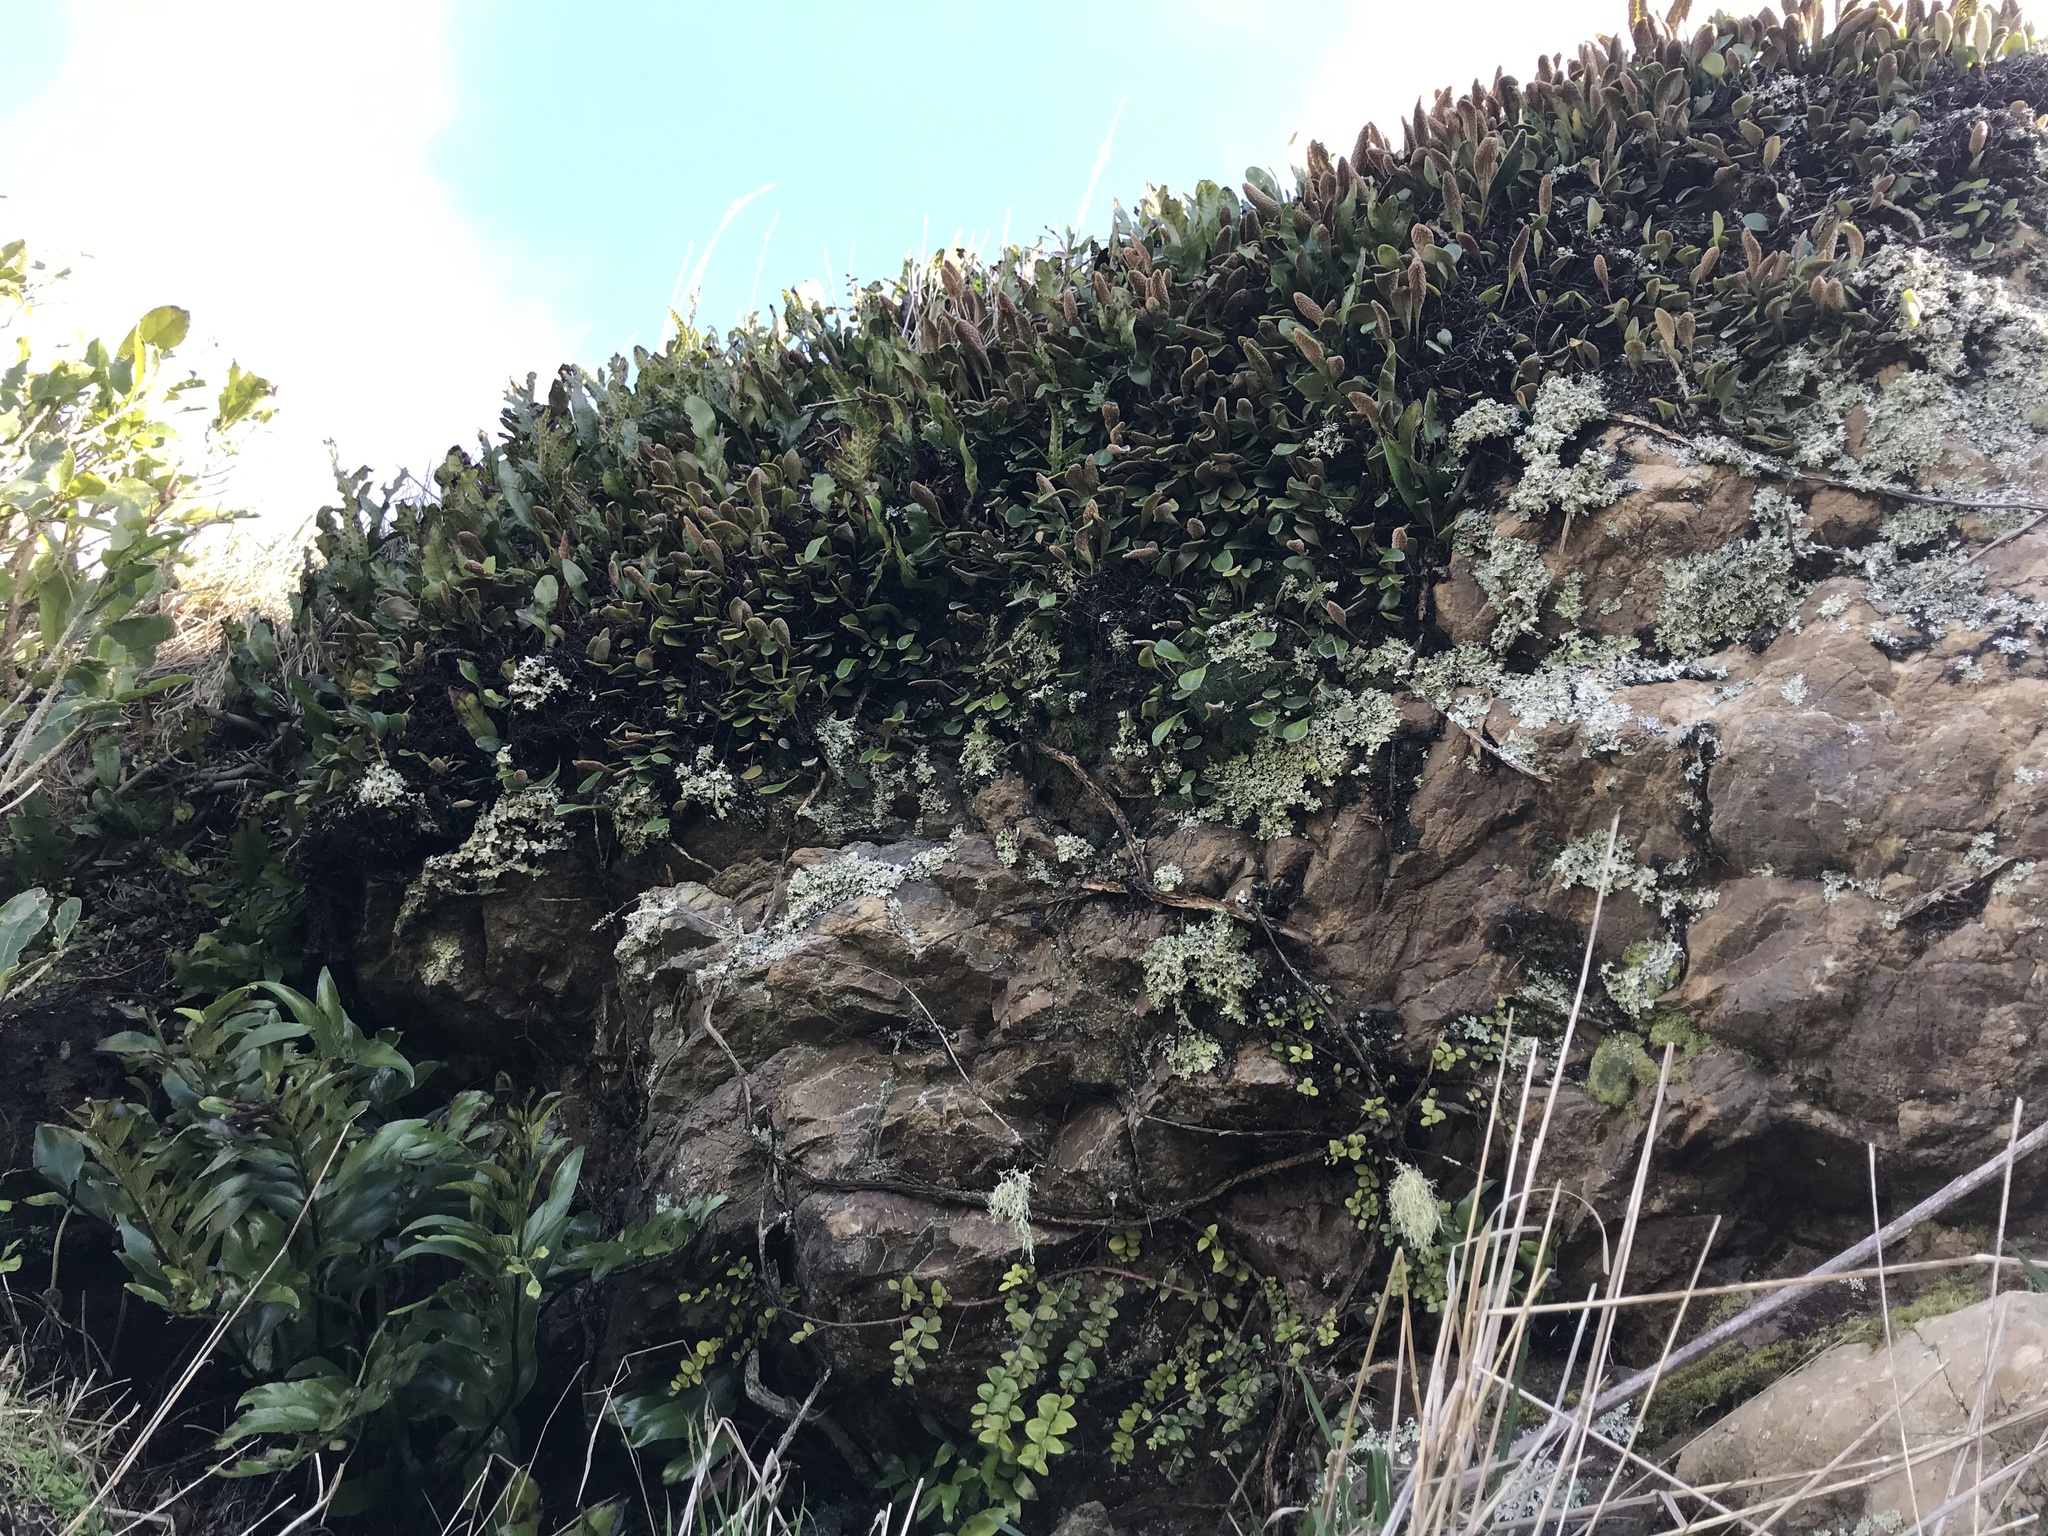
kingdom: Plantae
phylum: Tracheophyta
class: Polypodiopsida
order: Polypodiales
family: Polypodiaceae
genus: Pyrrosia
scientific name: Pyrrosia eleagnifolia
